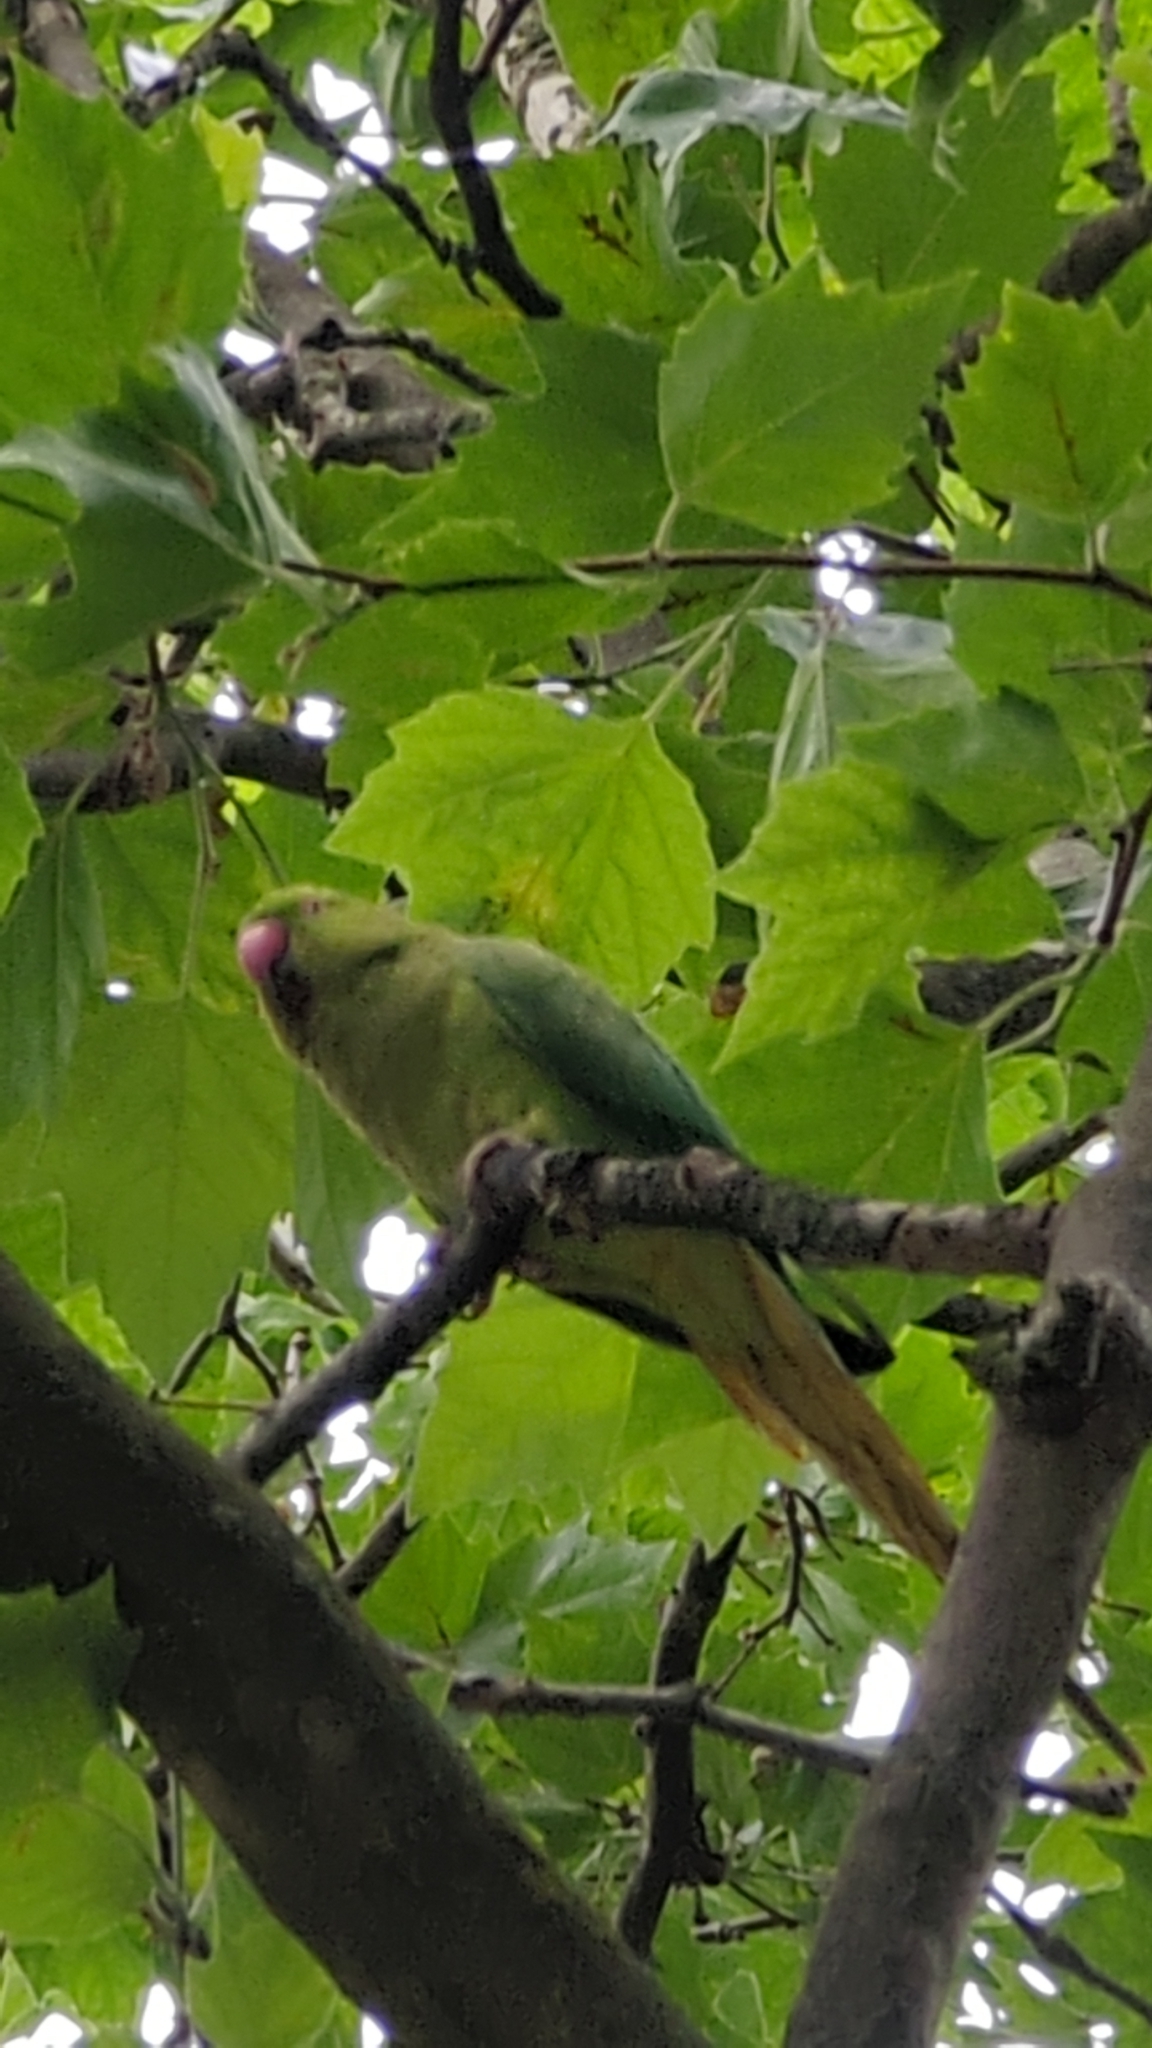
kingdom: Animalia
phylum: Chordata
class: Aves
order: Psittaciformes
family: Psittacidae
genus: Psittacula
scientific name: Psittacula krameri
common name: Rose-ringed parakeet
